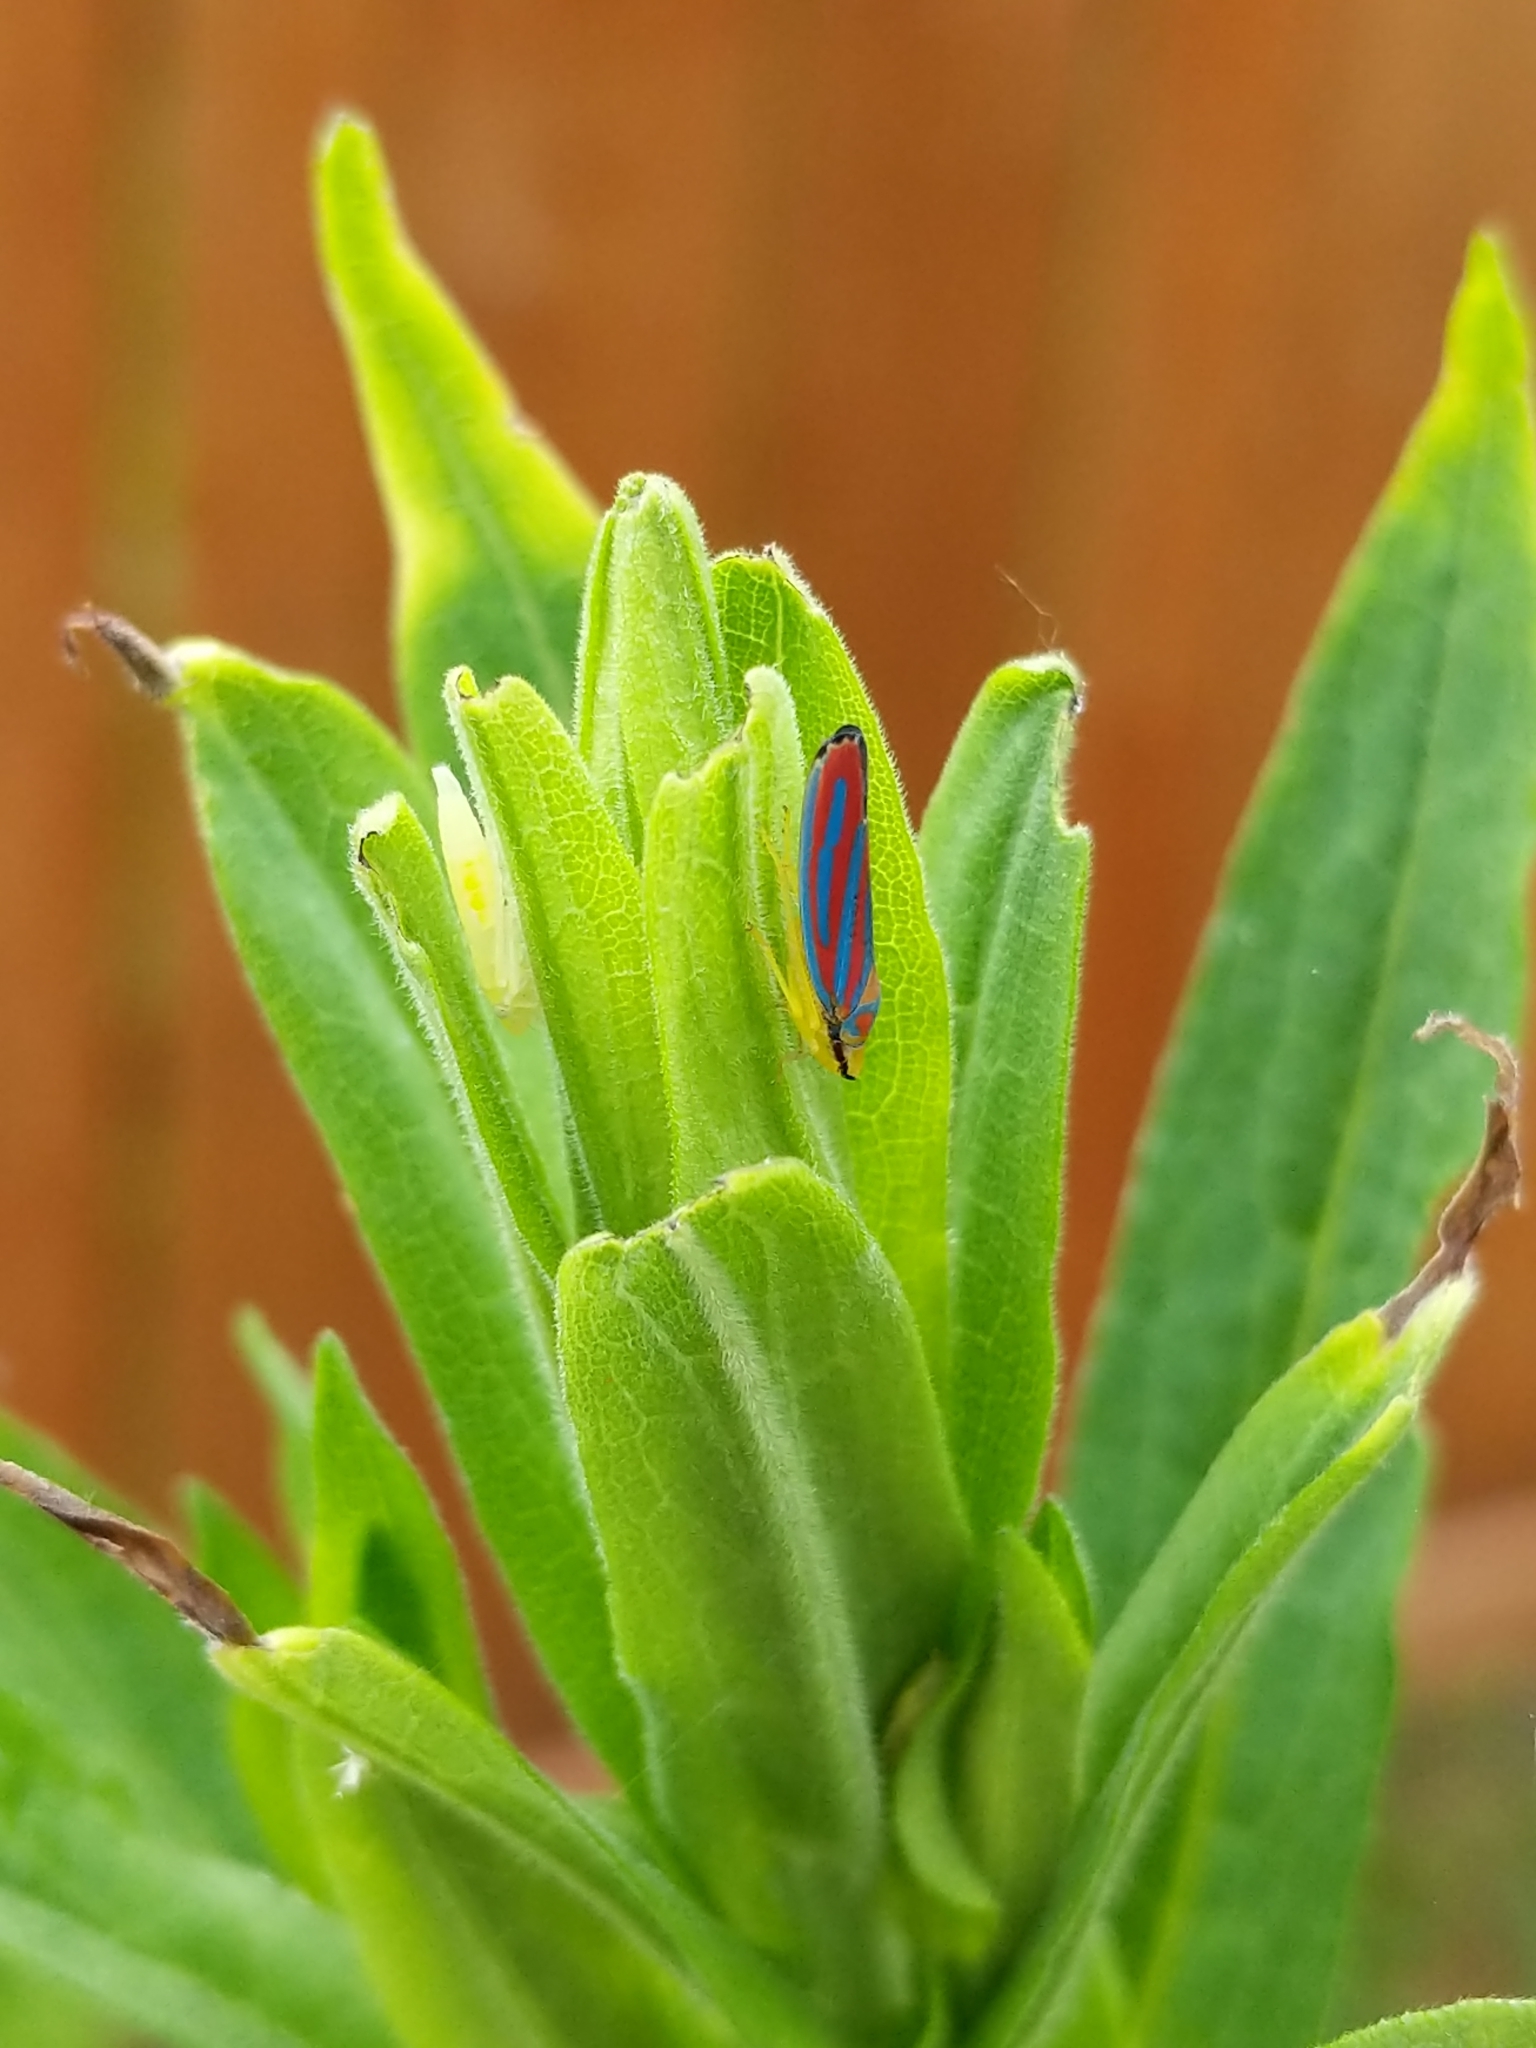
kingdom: Animalia
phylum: Arthropoda
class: Insecta
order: Hemiptera
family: Cicadellidae
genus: Graphocephala
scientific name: Graphocephala coccinea
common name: Candy-striped leafhopper
